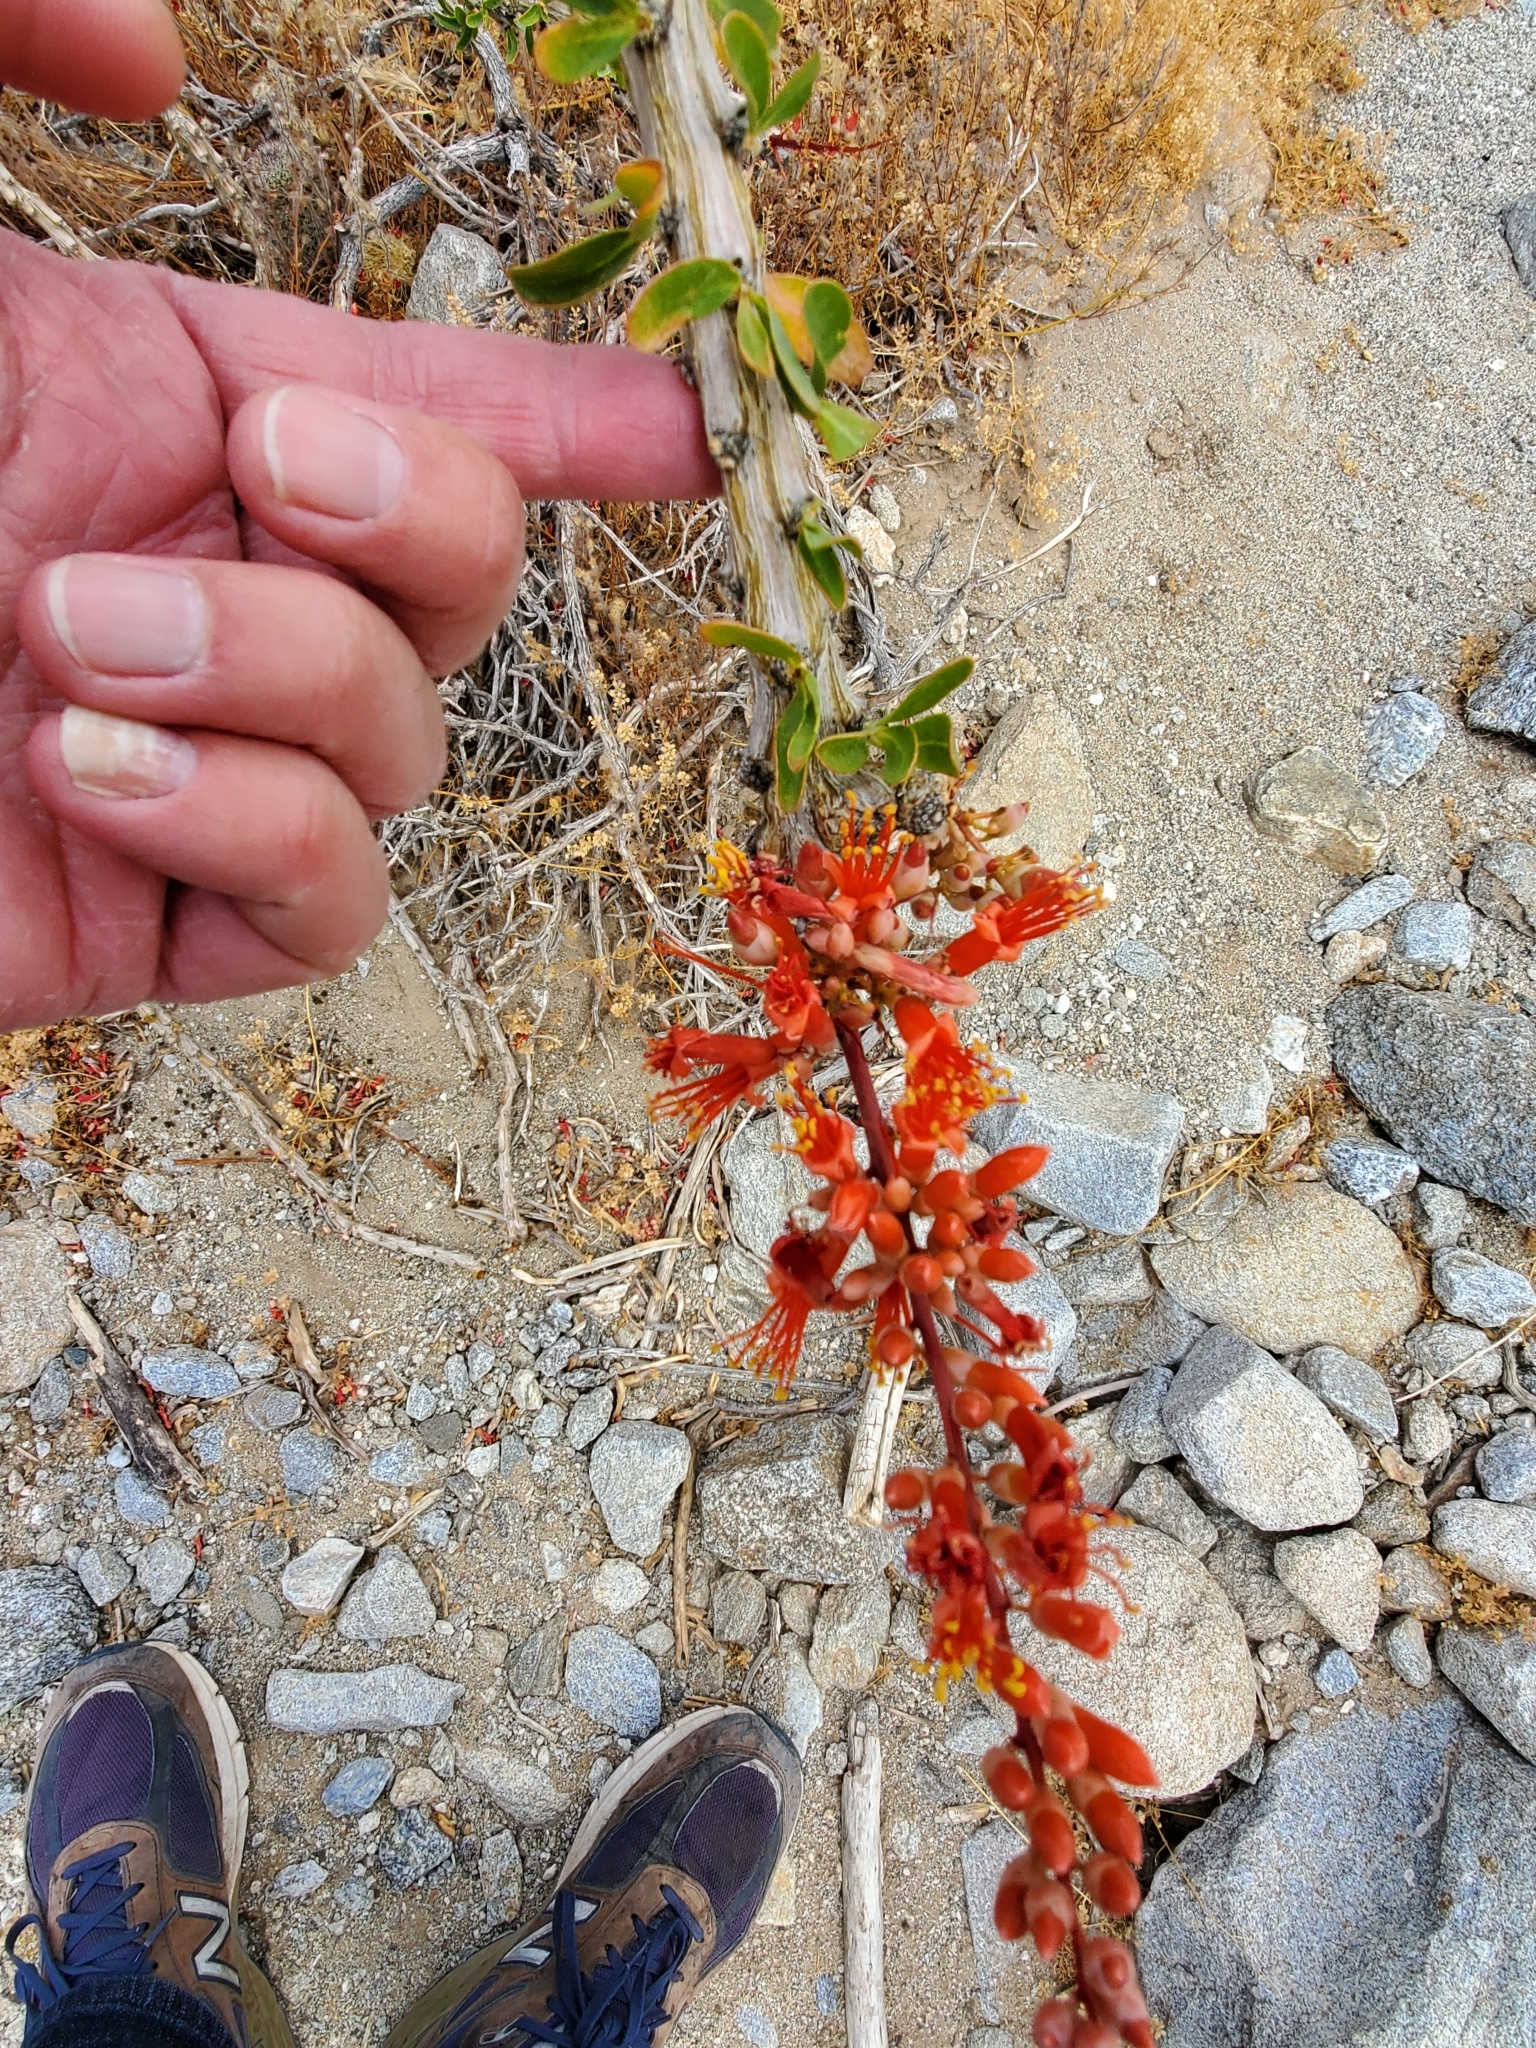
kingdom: Plantae
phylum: Tracheophyta
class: Magnoliopsida
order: Ericales
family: Fouquieriaceae
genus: Fouquieria
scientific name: Fouquieria splendens
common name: Vine-cactus
